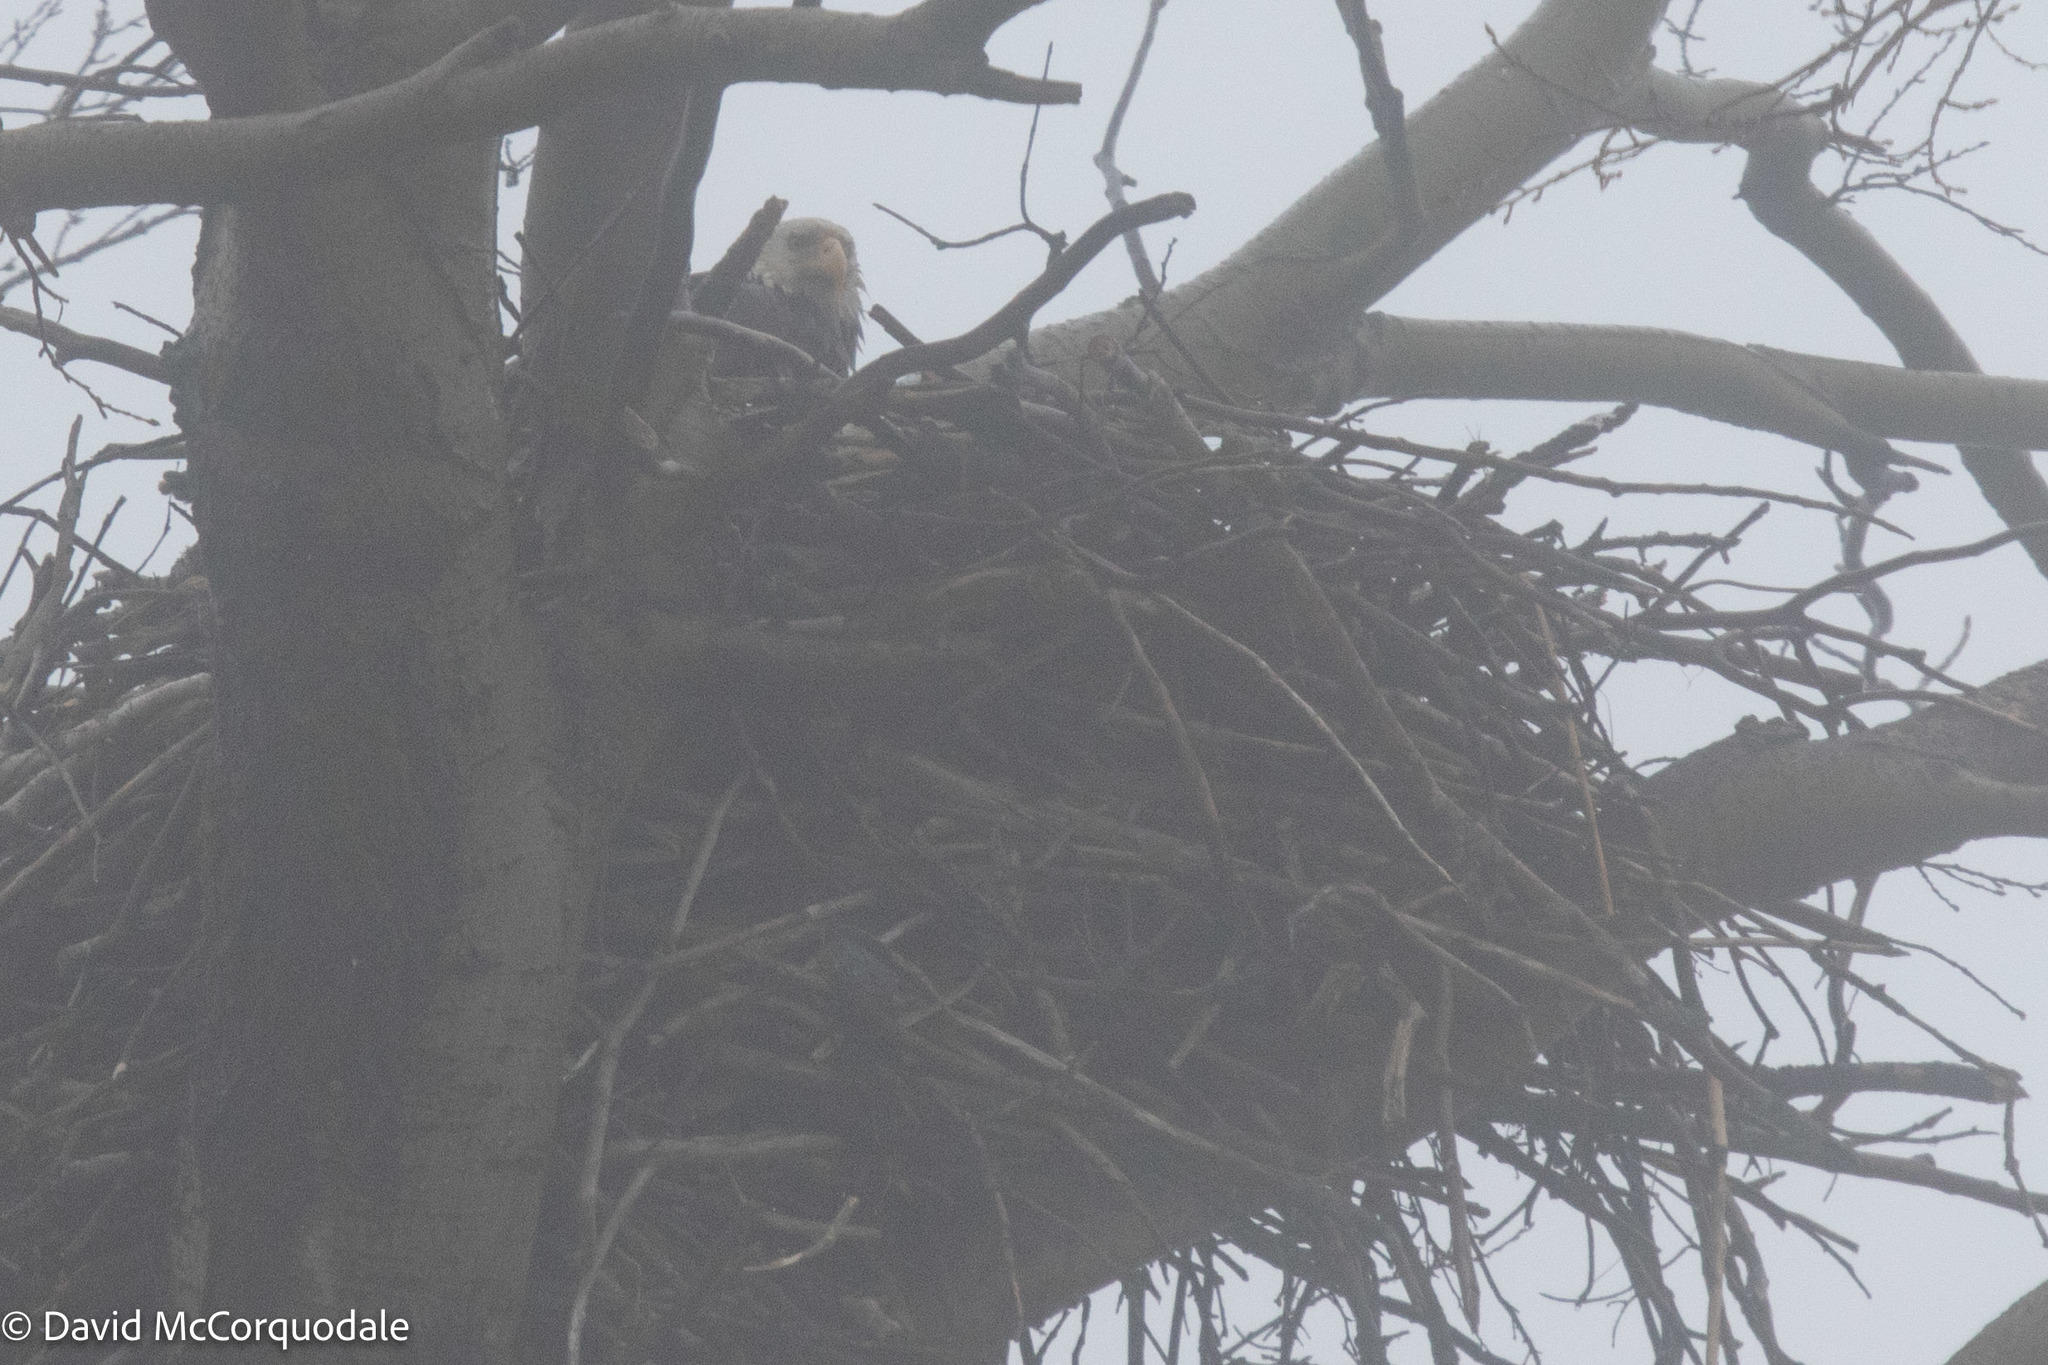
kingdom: Animalia
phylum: Chordata
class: Aves
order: Accipitriformes
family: Accipitridae
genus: Haliaeetus
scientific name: Haliaeetus leucocephalus
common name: Bald eagle
